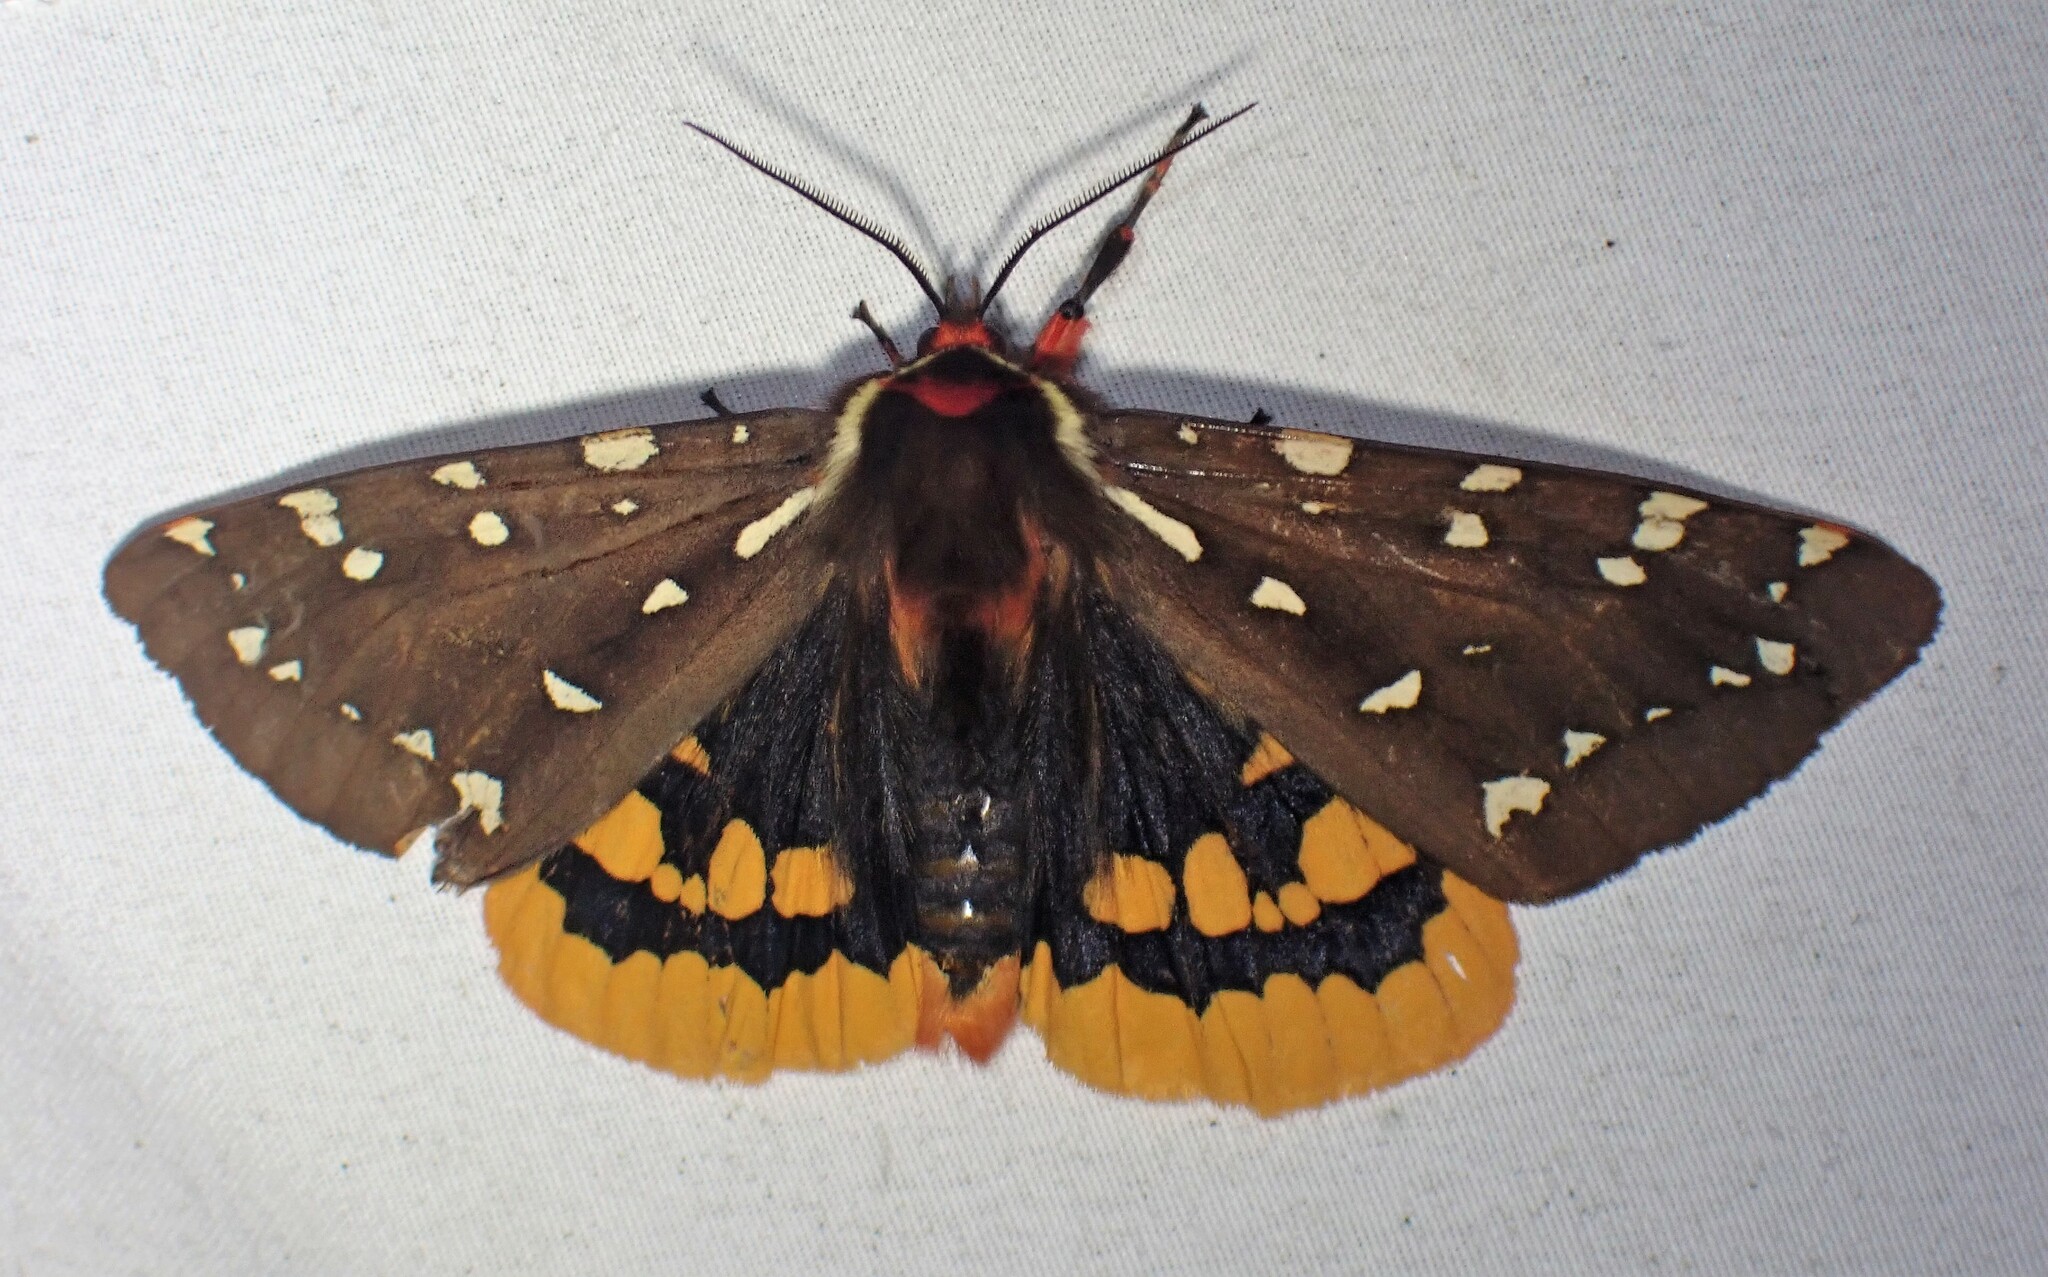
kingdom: Animalia
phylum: Arthropoda
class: Insecta
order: Lepidoptera
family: Erebidae
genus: Arctia
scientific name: Arctia parthenos
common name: St. lawrence tiger moth
